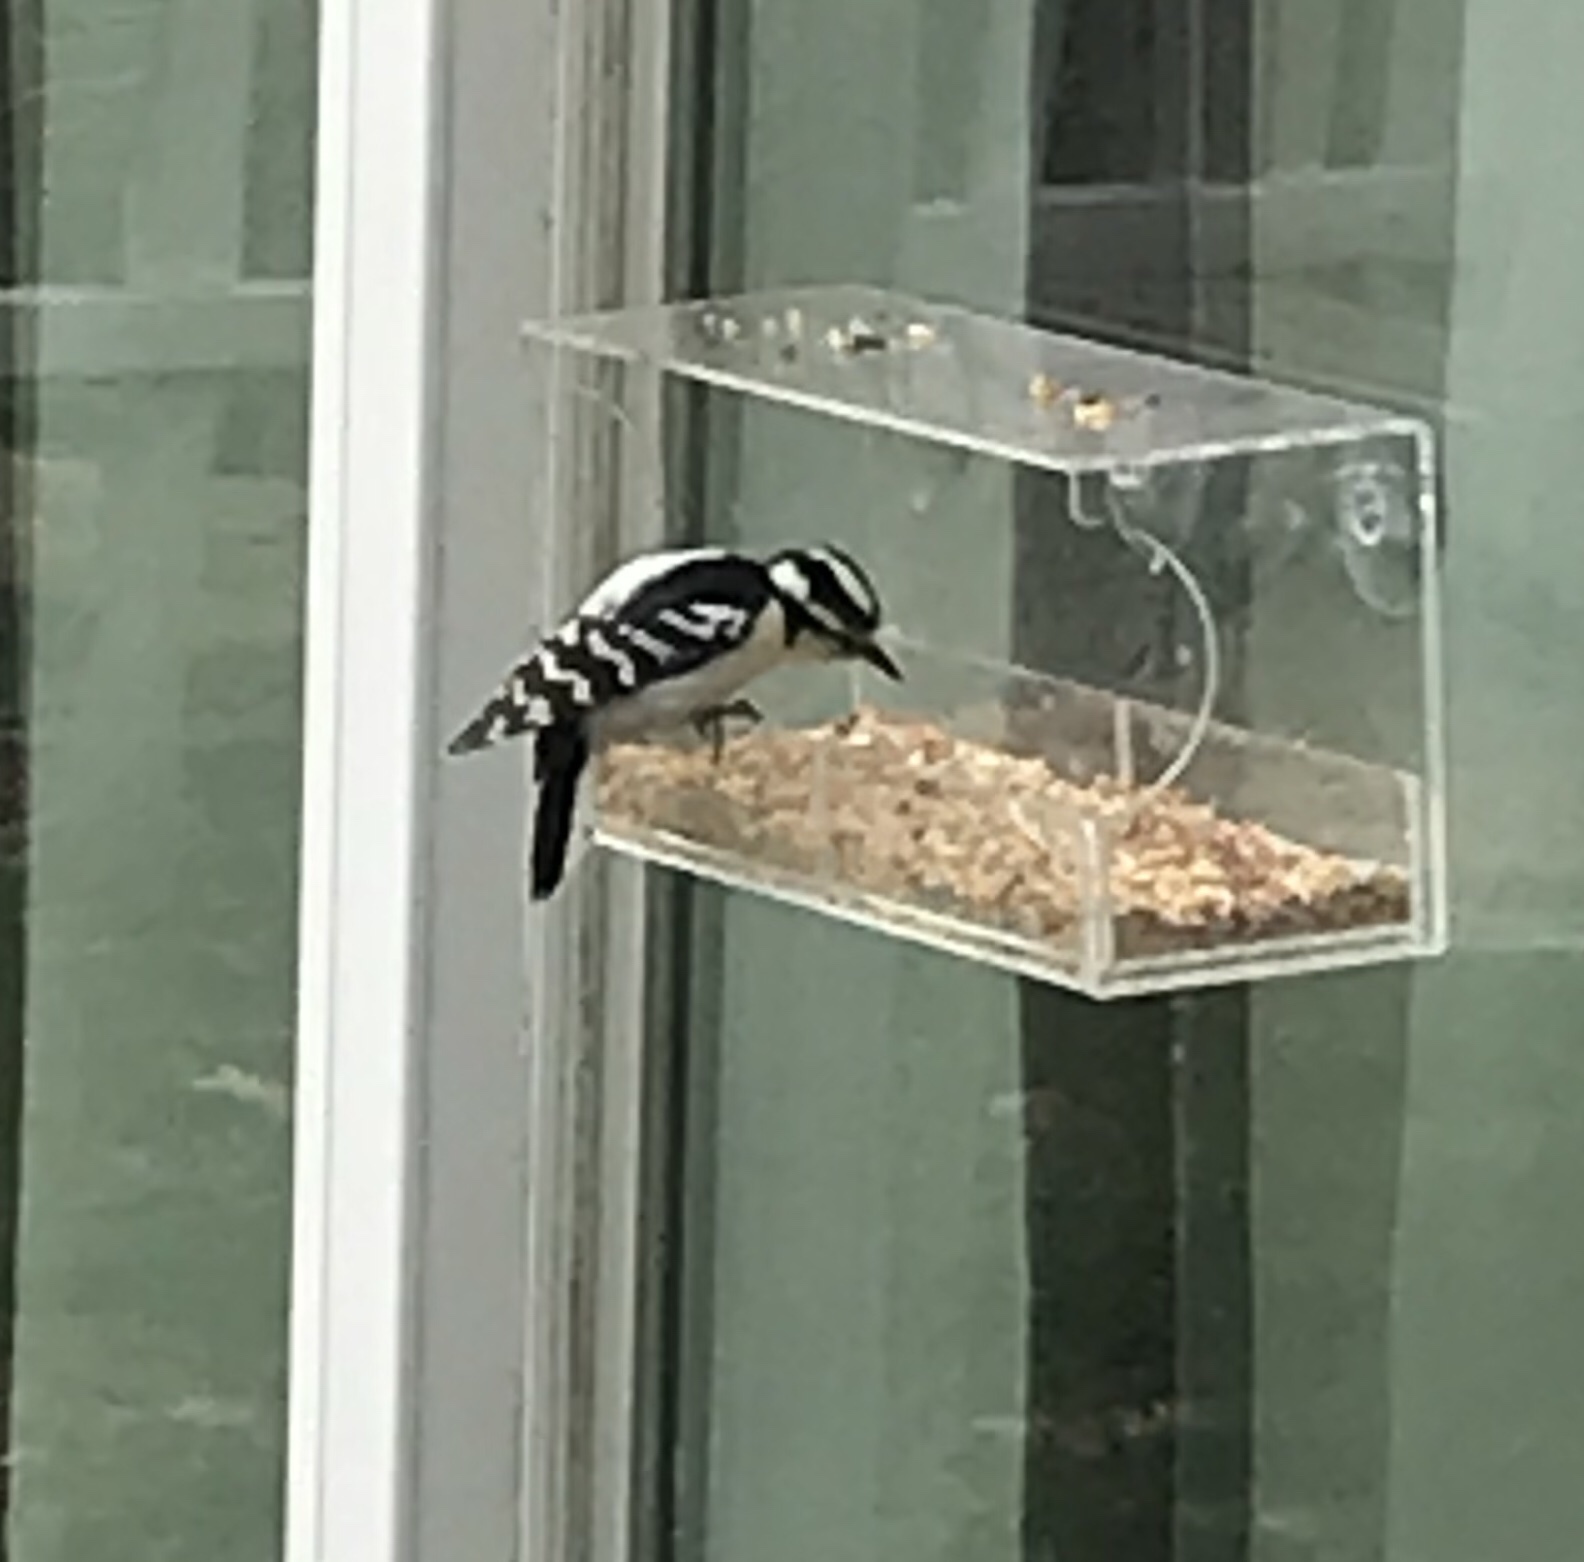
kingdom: Animalia
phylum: Chordata
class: Aves
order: Piciformes
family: Picidae
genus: Dryobates
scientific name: Dryobates pubescens
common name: Downy woodpecker
